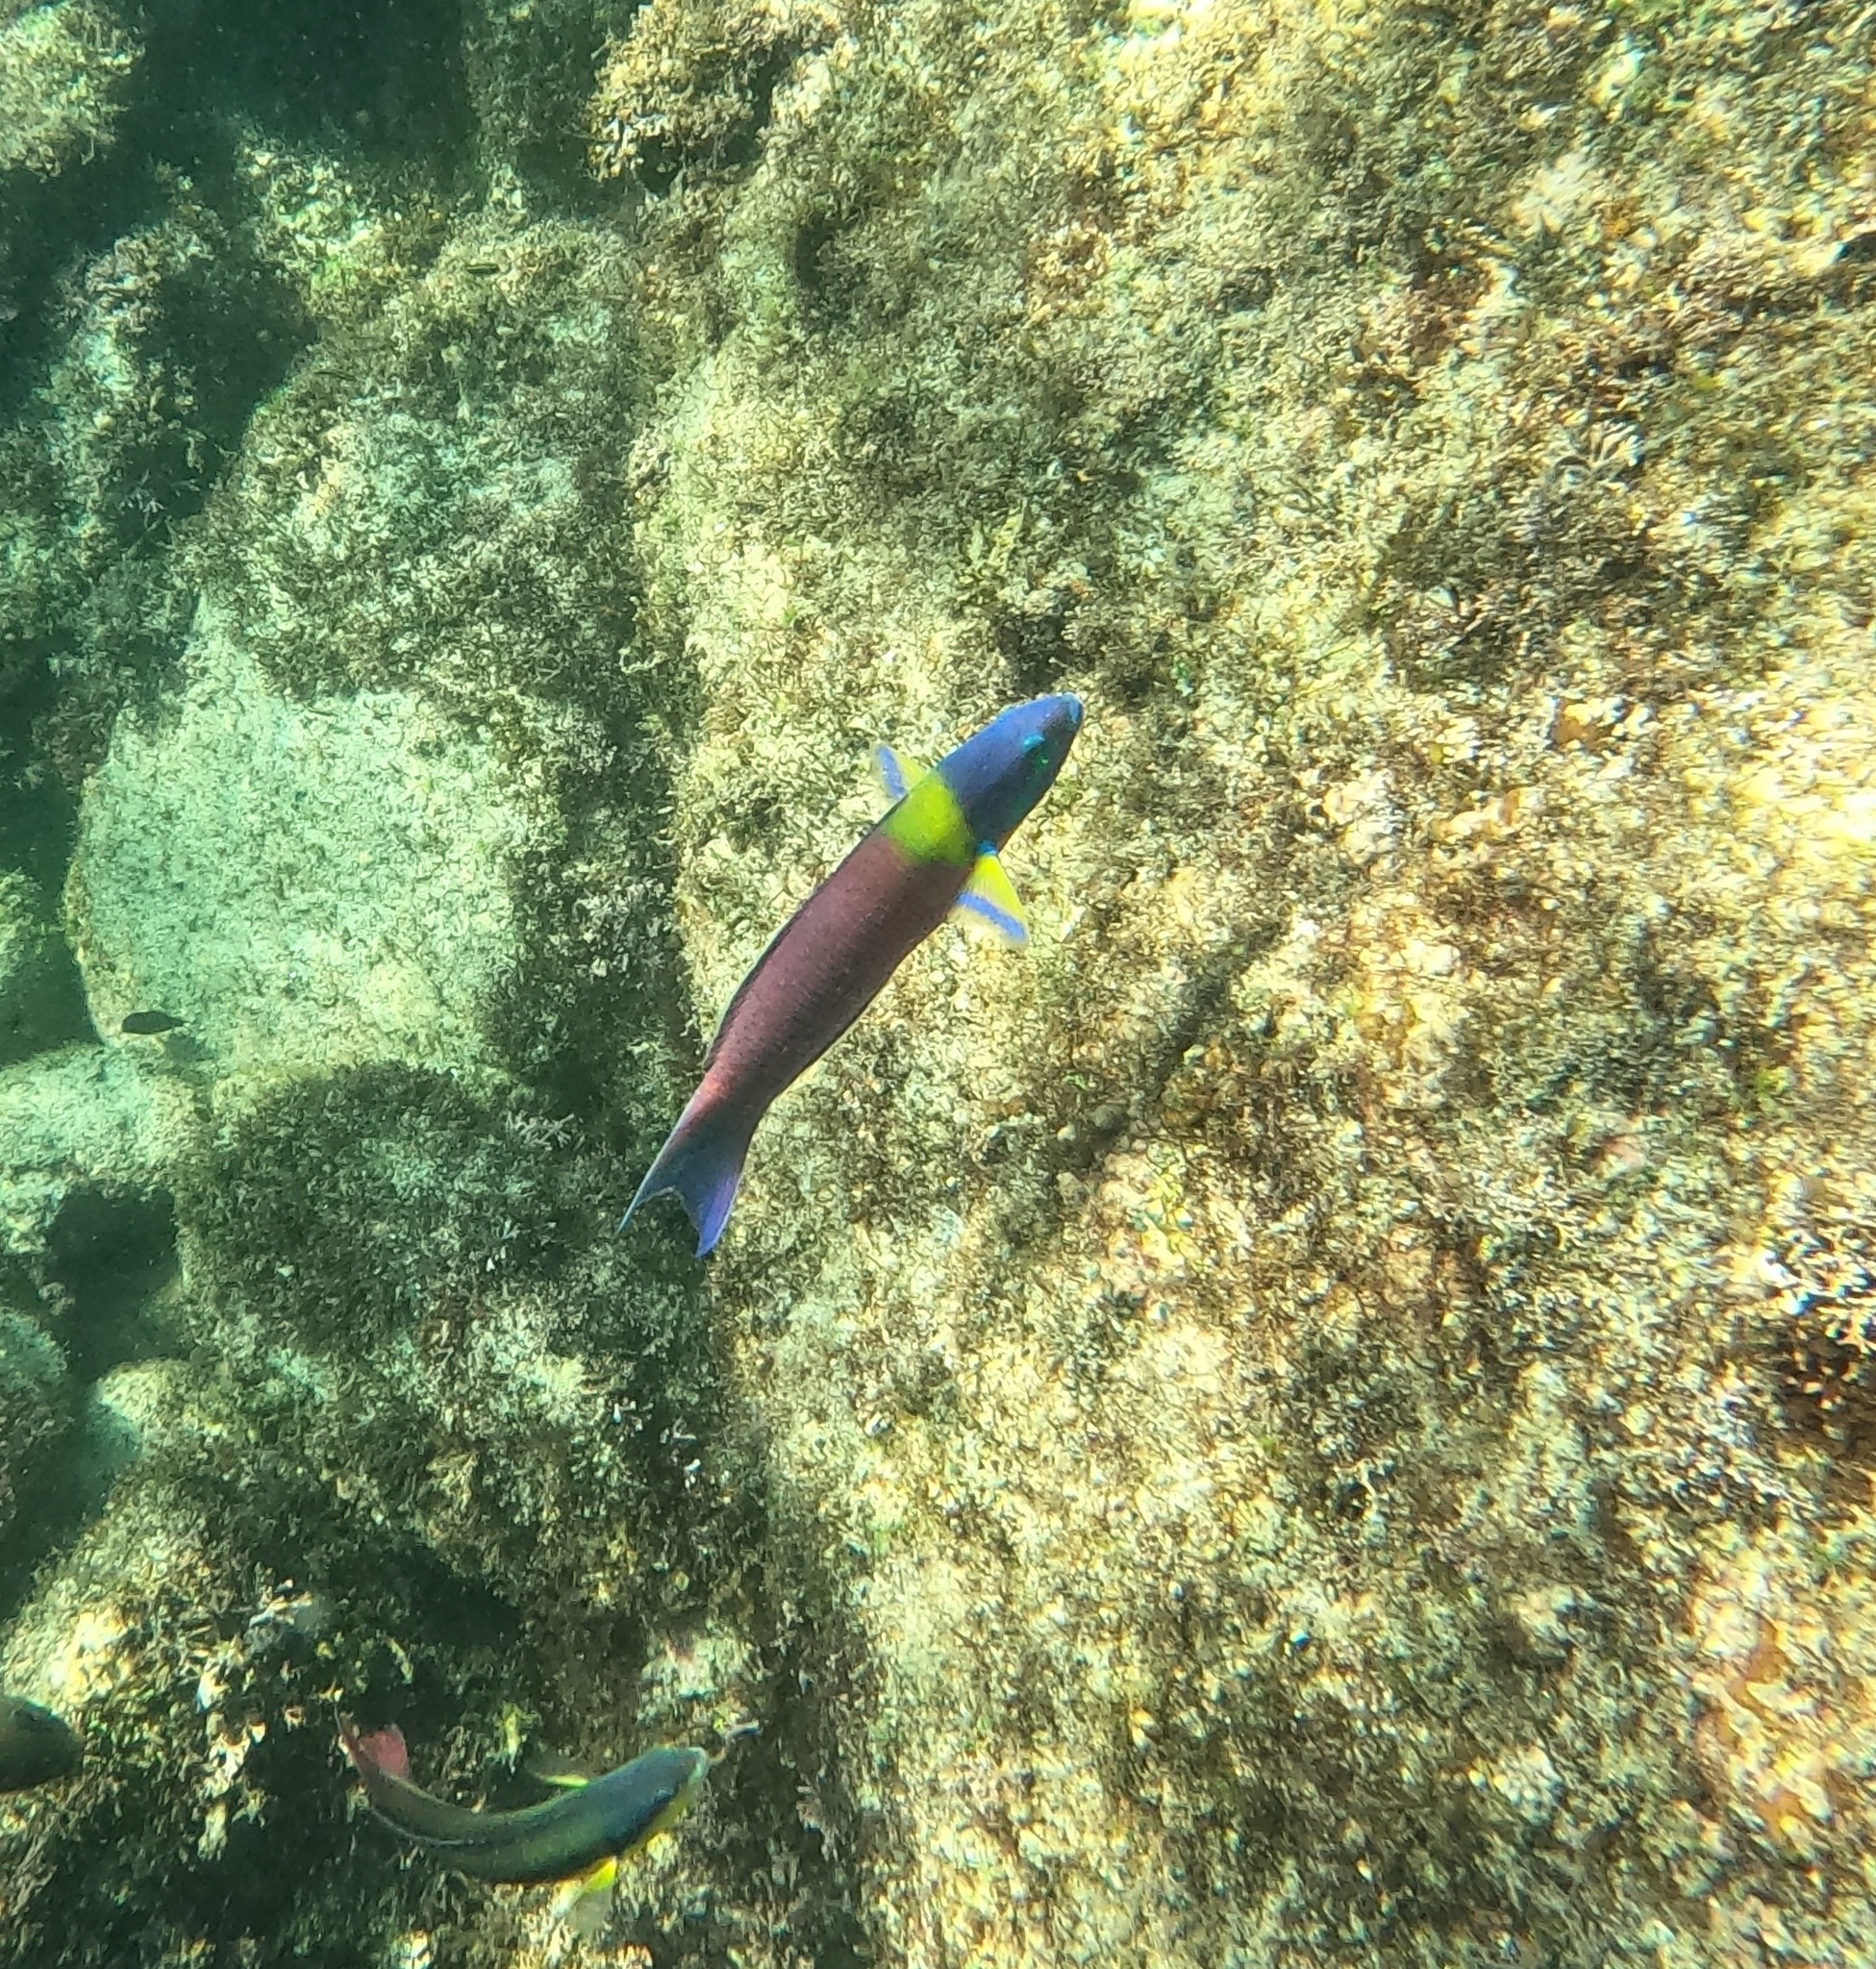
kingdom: Animalia
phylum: Chordata
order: Perciformes
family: Labridae
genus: Thalassoma
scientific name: Thalassoma lucasanum
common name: Cortez rainbow wrasse
